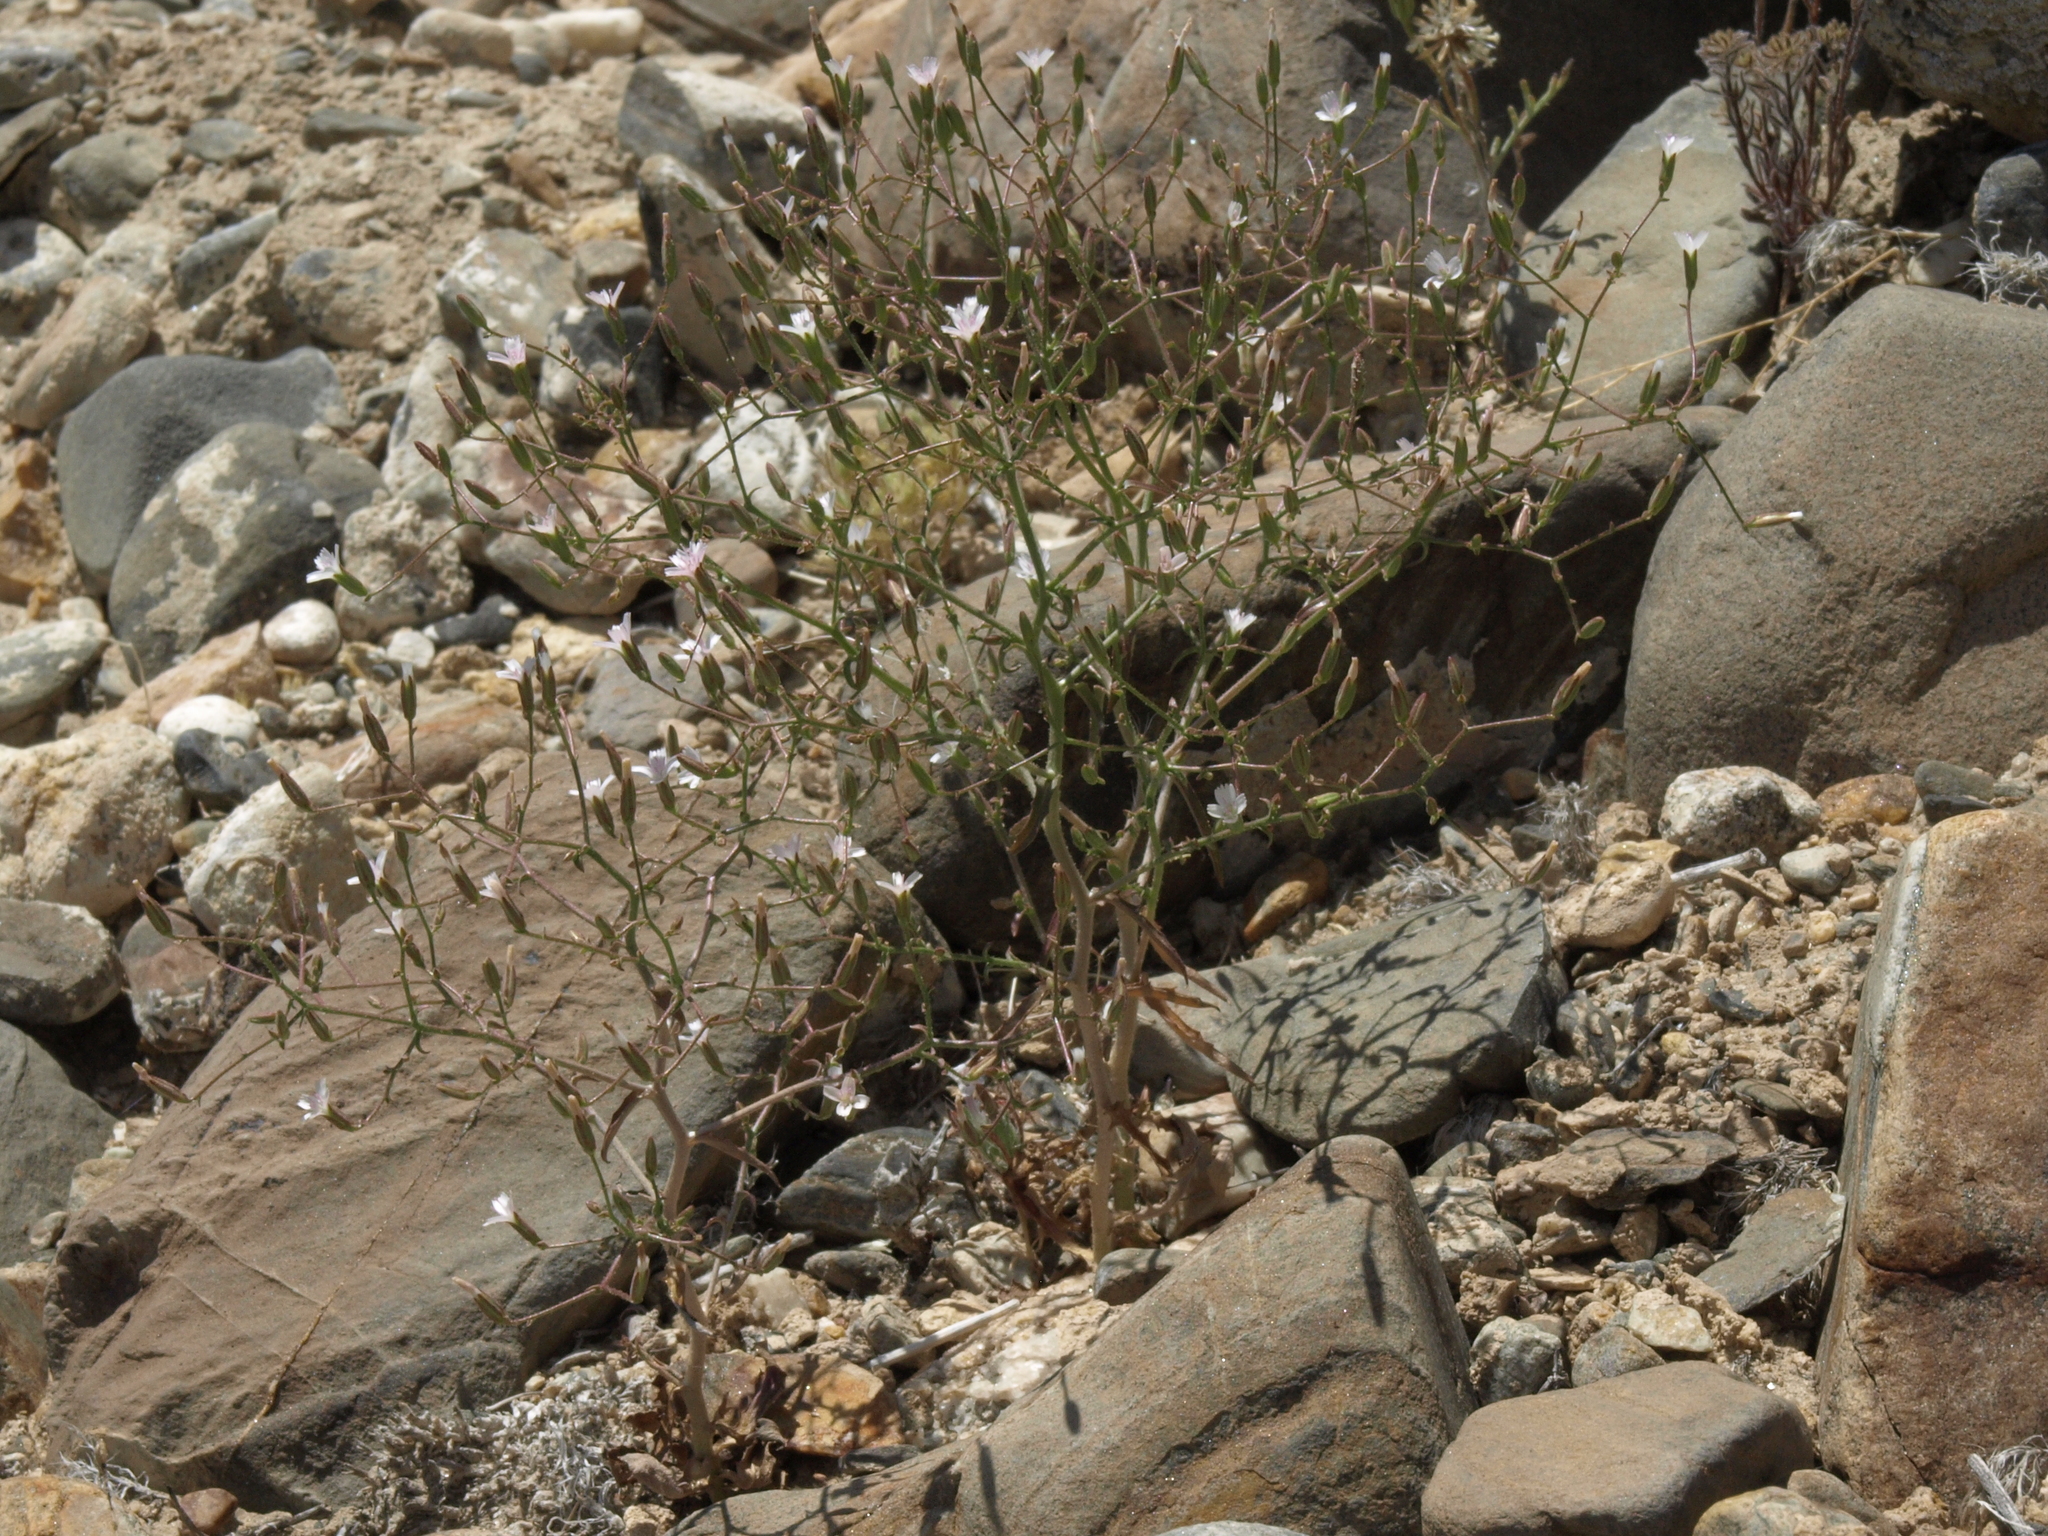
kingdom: Plantae
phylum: Tracheophyta
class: Magnoliopsida
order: Asterales
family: Asteraceae
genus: Lygodesmia
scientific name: Lygodesmia exigua
